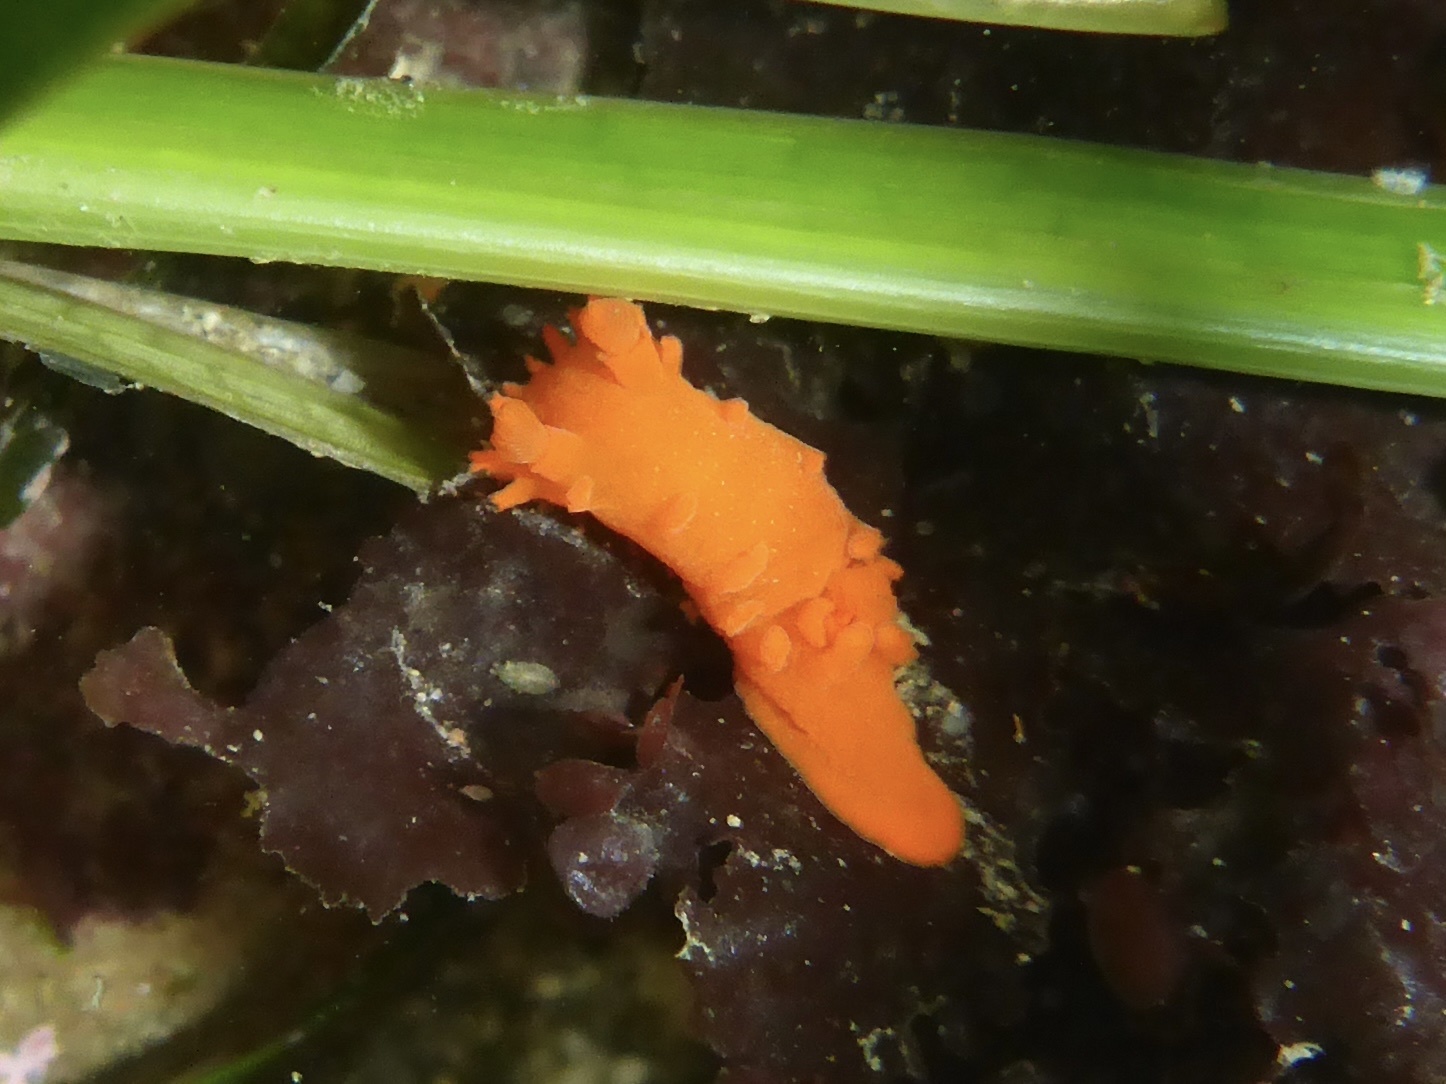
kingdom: Animalia
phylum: Mollusca
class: Gastropoda
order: Nudibranchia
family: Polyceridae
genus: Triopha
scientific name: Triopha maculata
